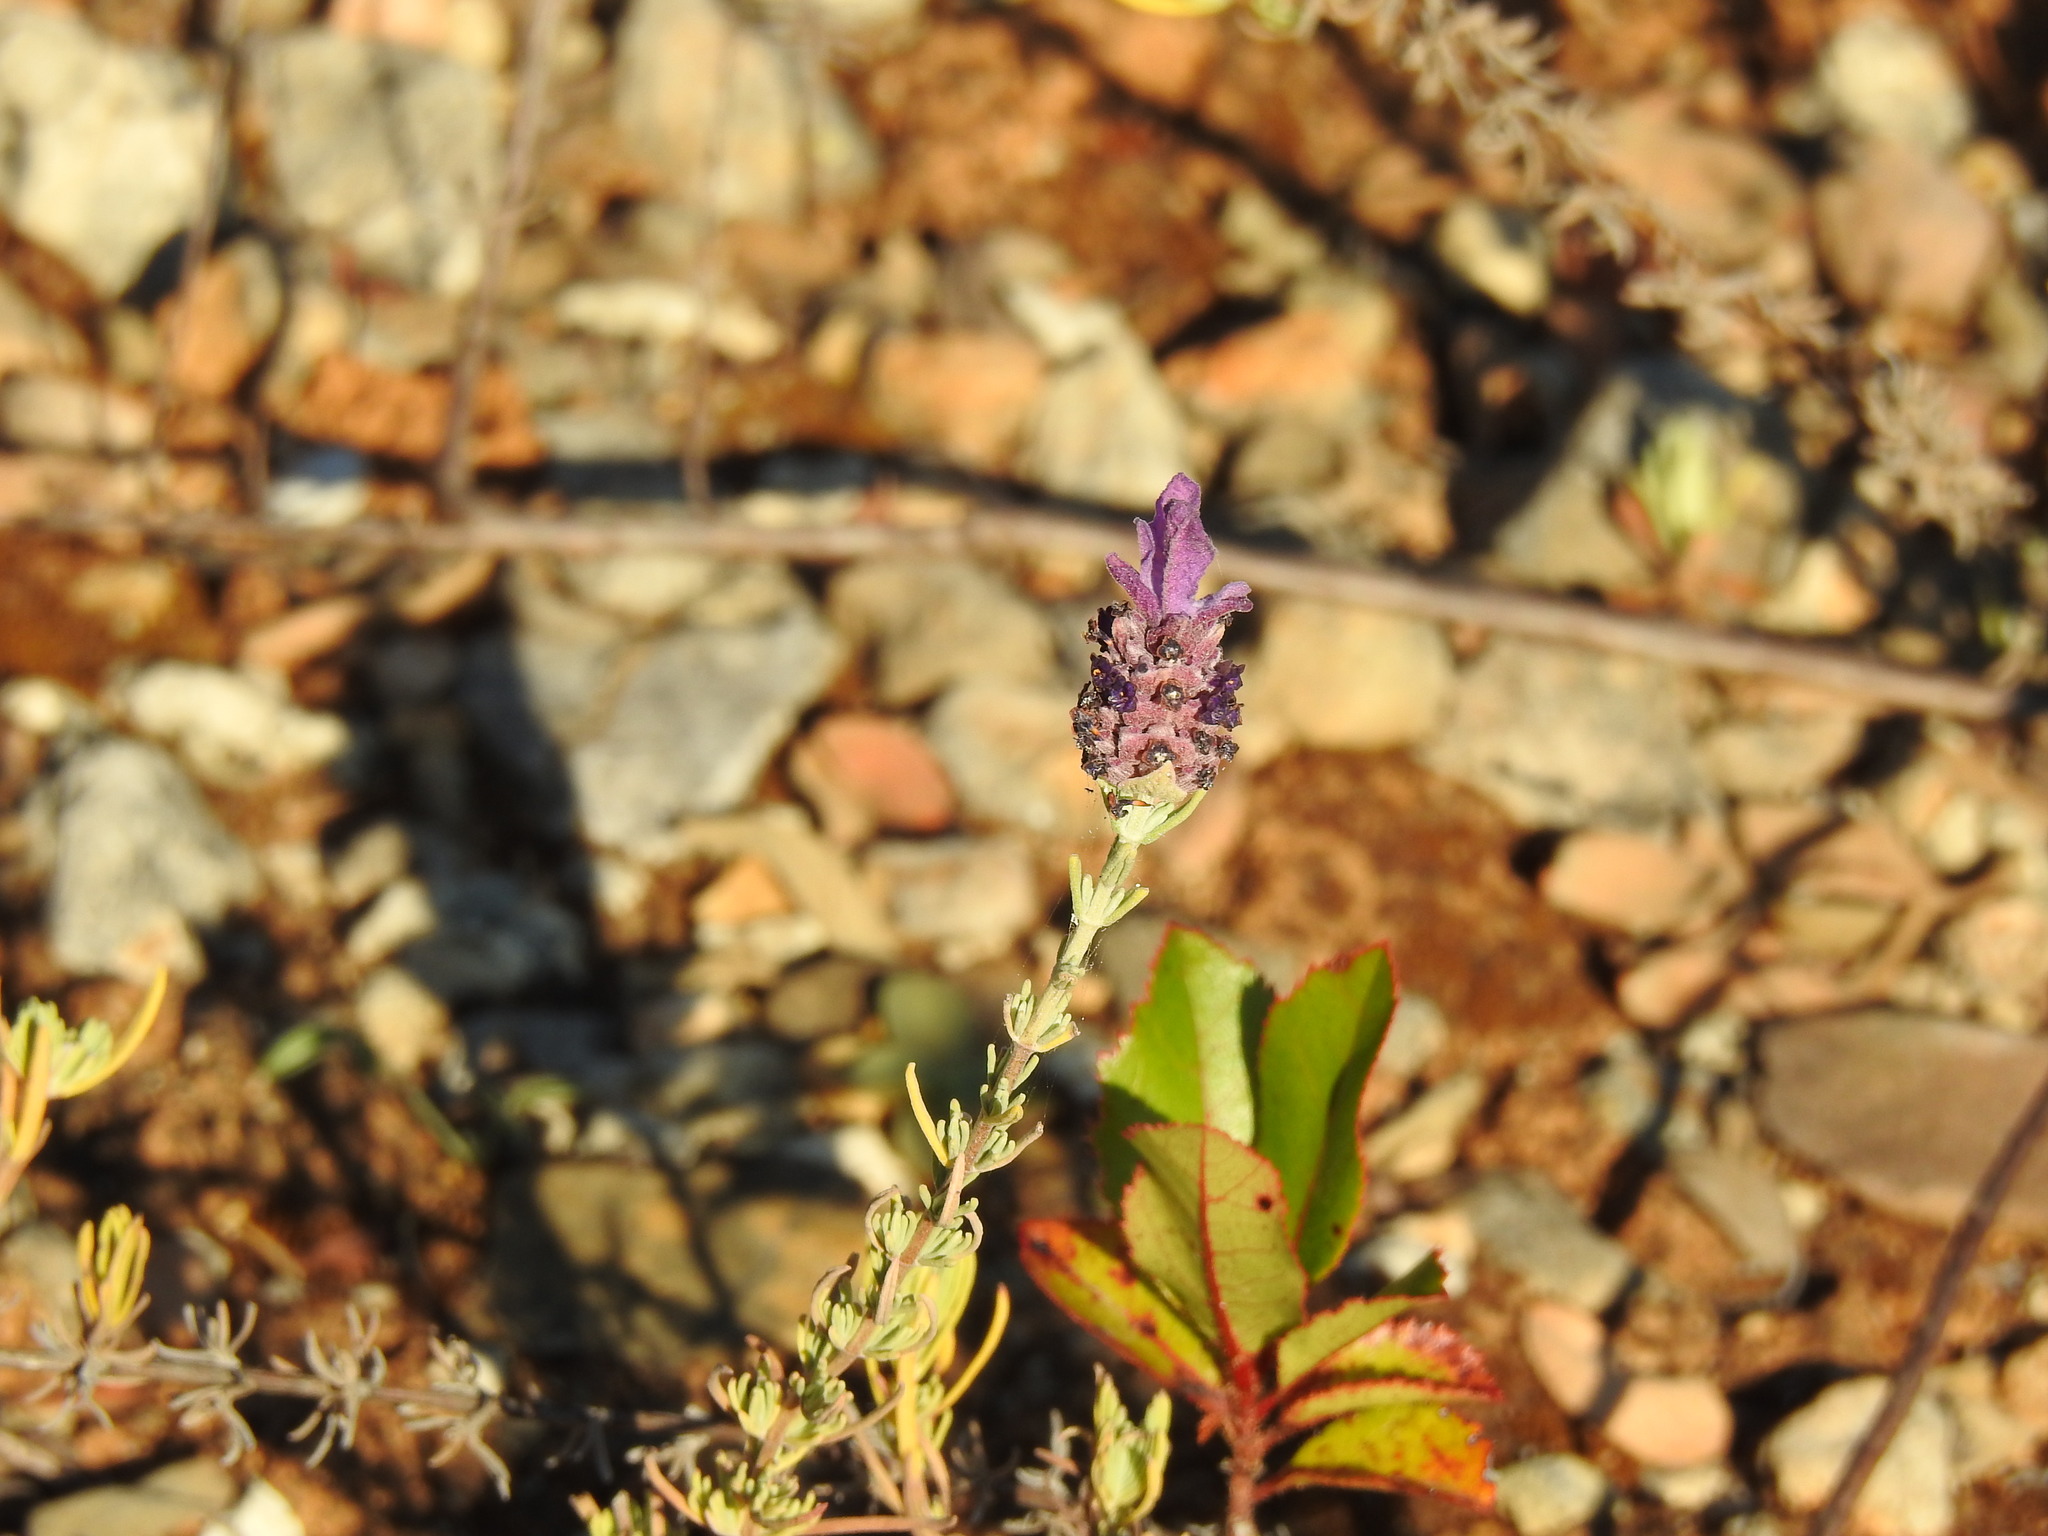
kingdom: Plantae
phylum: Tracheophyta
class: Magnoliopsida
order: Lamiales
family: Lamiaceae
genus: Lavandula
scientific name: Lavandula stoechas
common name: French lavender
